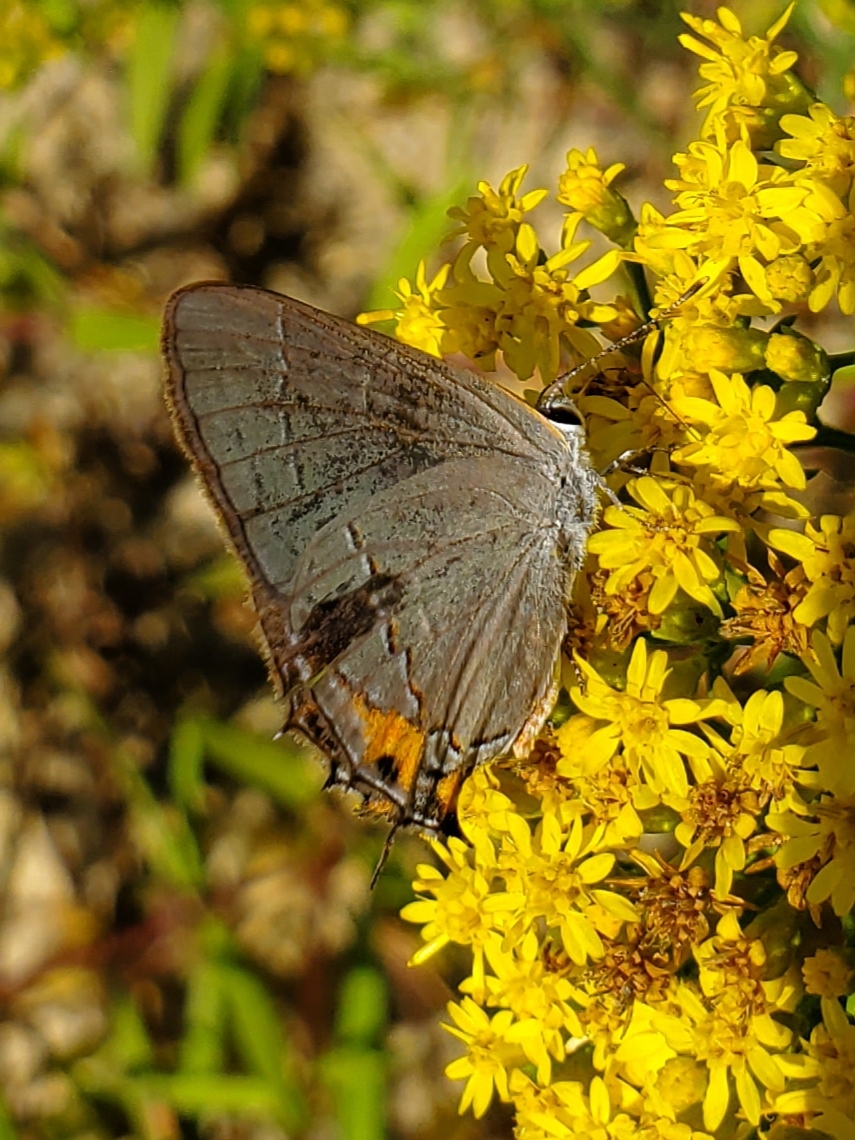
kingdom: Animalia
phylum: Arthropoda
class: Insecta
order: Lepidoptera
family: Lycaenidae
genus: Strymon
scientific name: Strymon melinus
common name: Gray hairstreak
